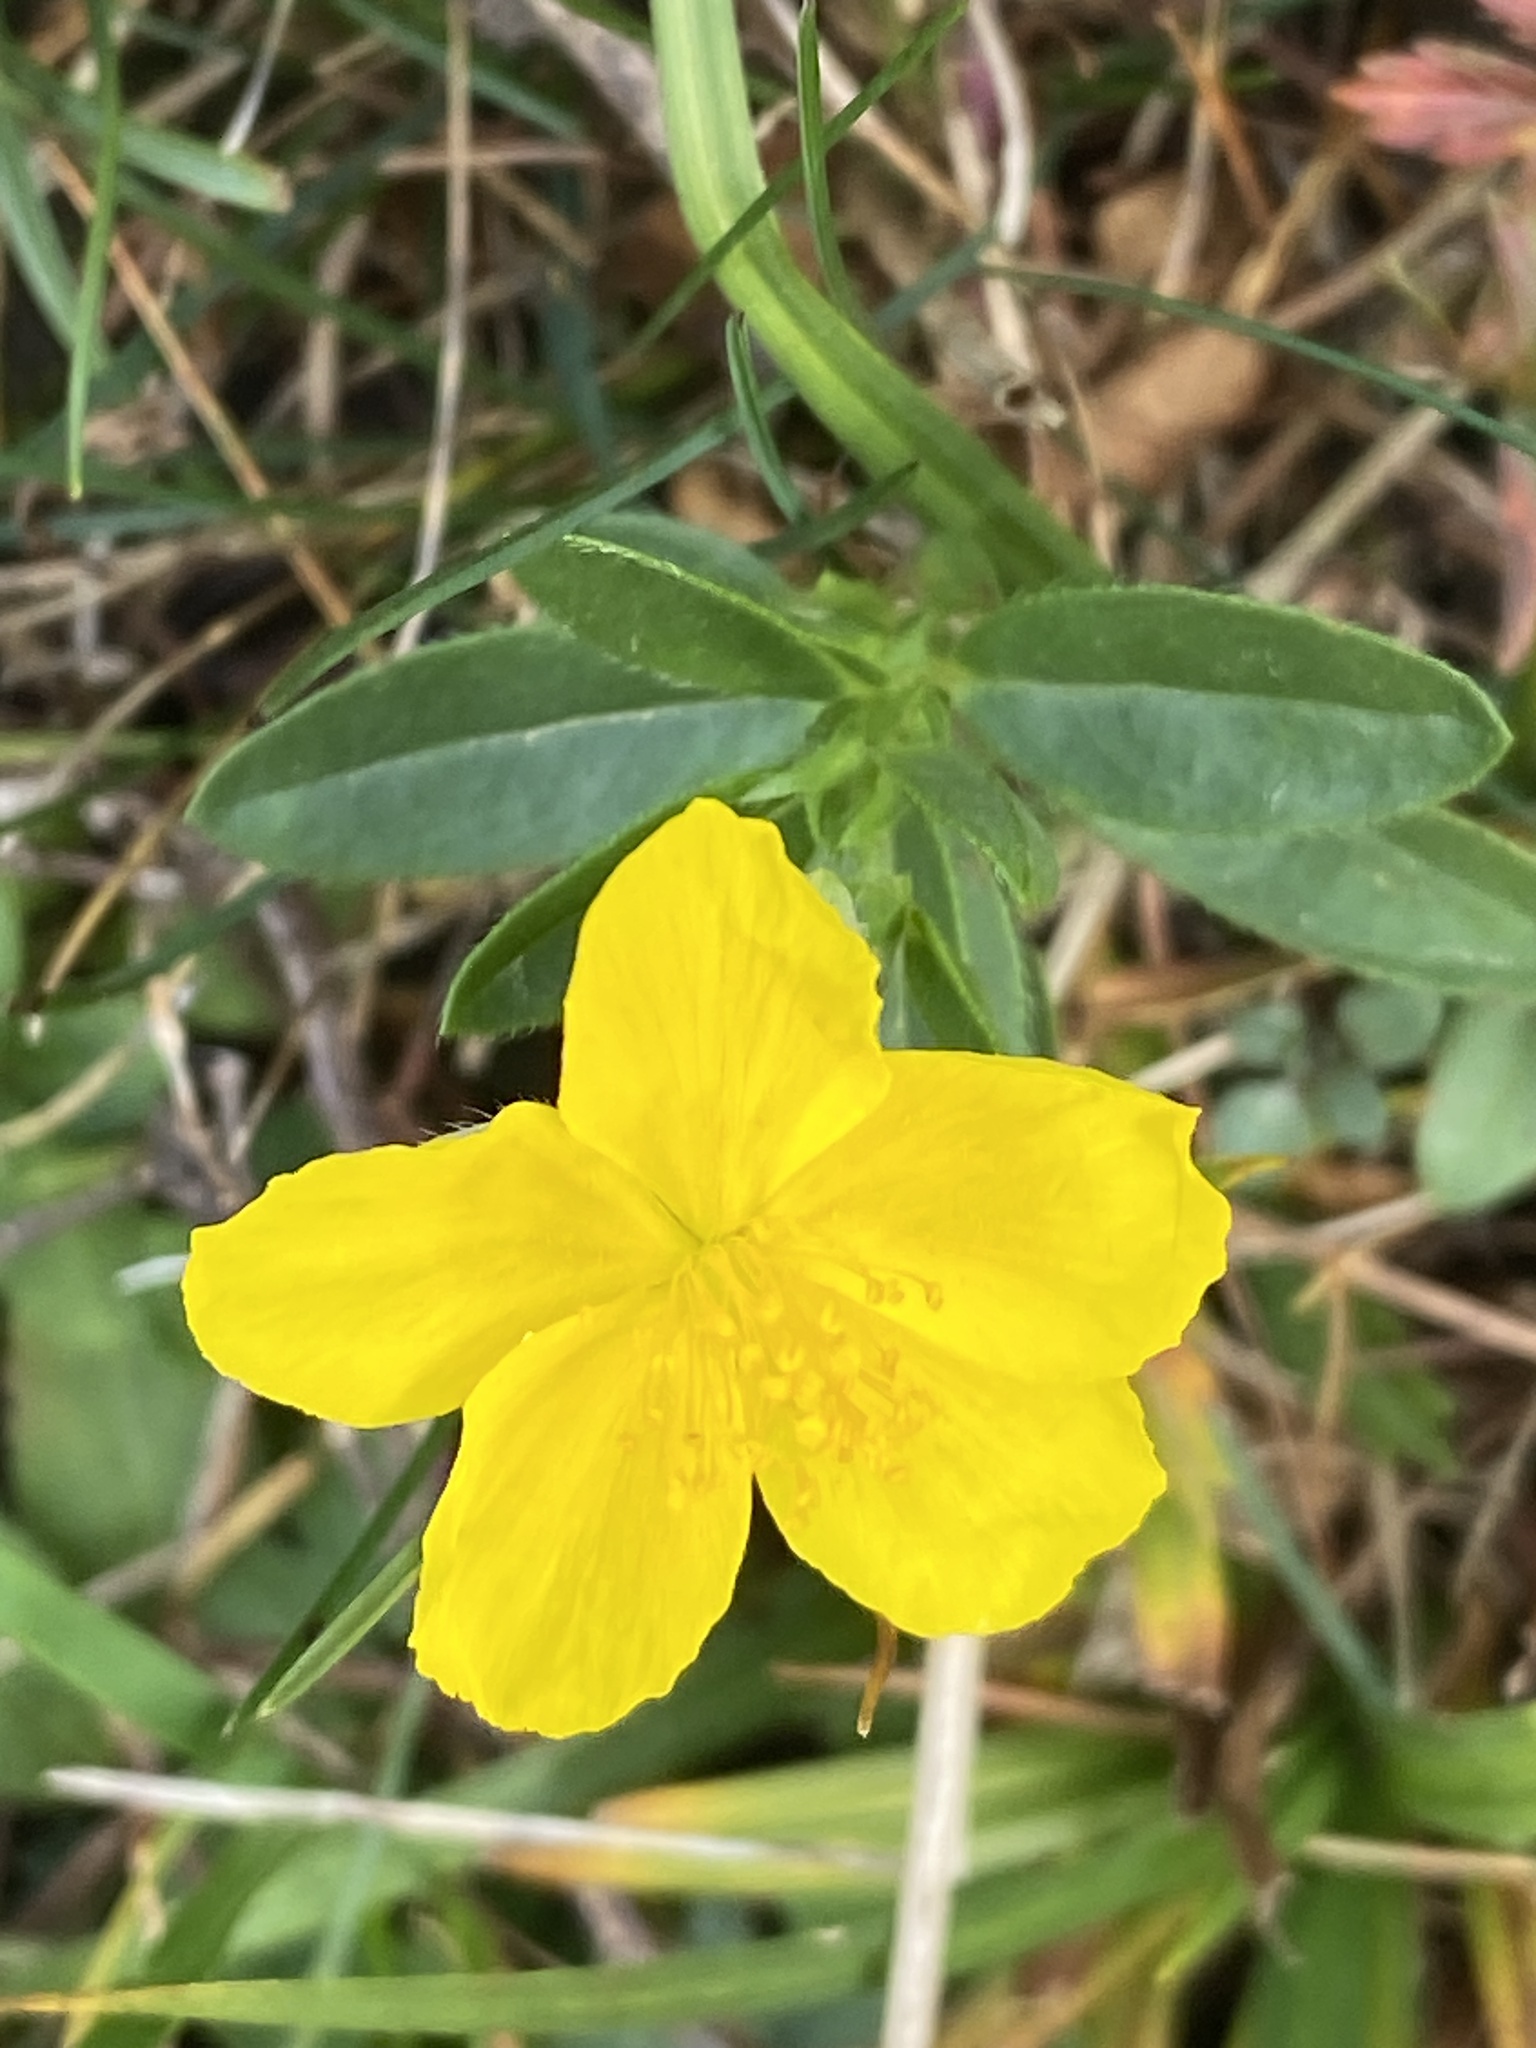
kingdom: Plantae
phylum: Tracheophyta
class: Magnoliopsida
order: Malvales
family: Cistaceae
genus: Helianthemum
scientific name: Helianthemum nummularium
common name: Common rock-rose
